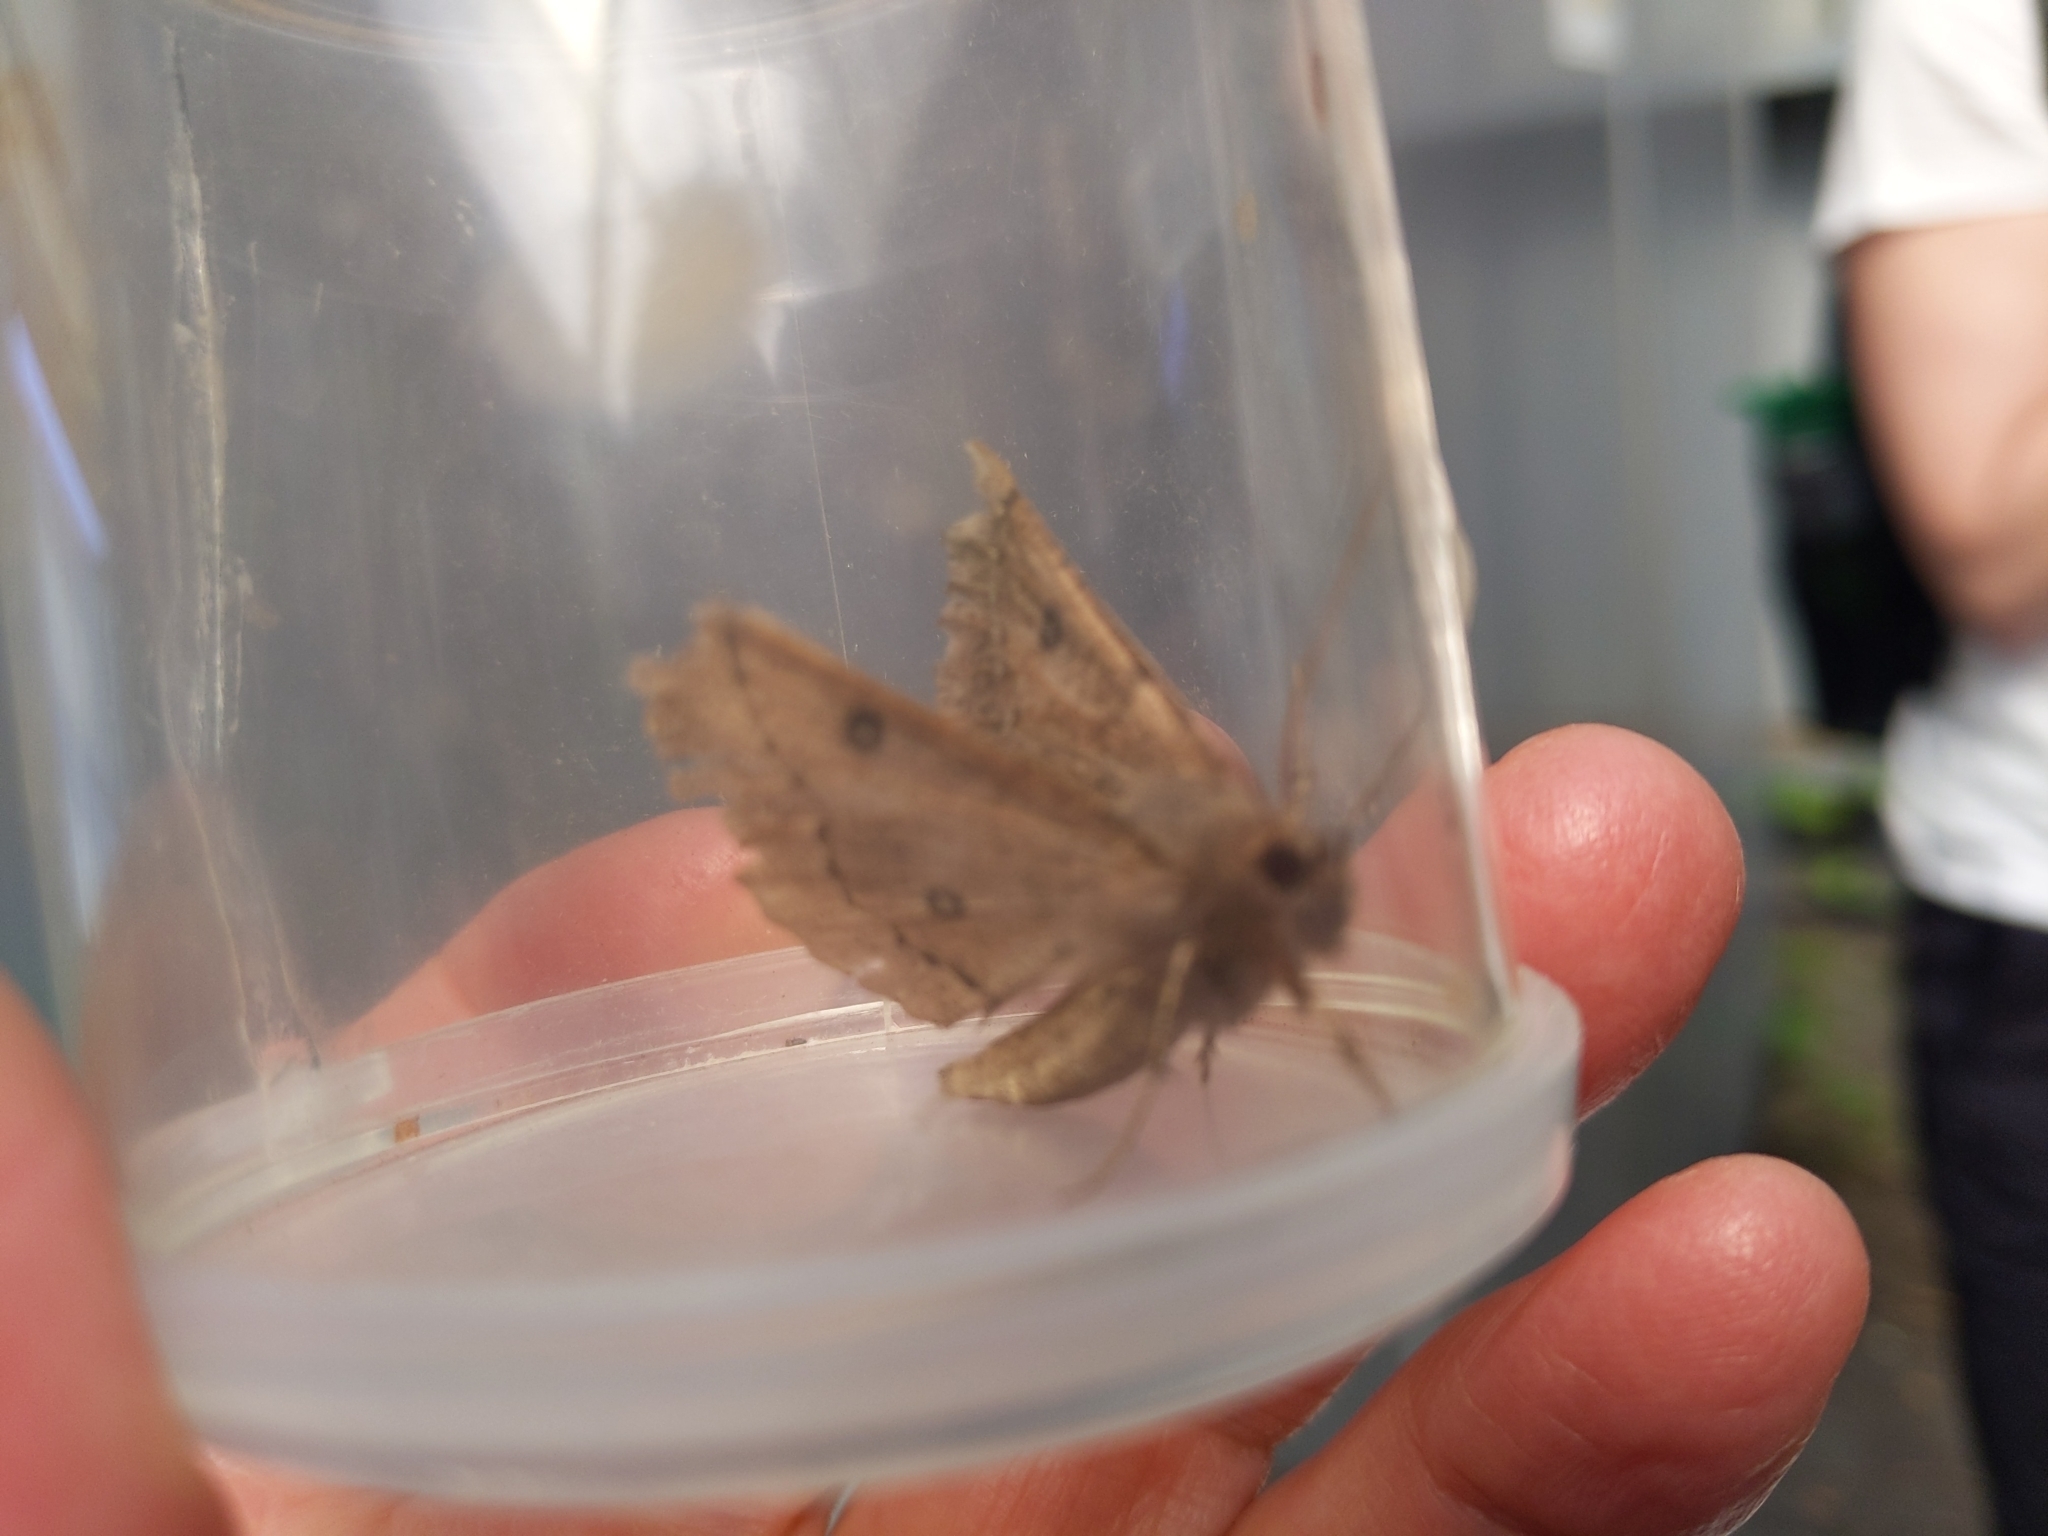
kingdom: Animalia
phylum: Arthropoda
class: Insecta
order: Lepidoptera
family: Geometridae
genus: Odontopera
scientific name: Odontopera bidentata
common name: Scalloped hazel
